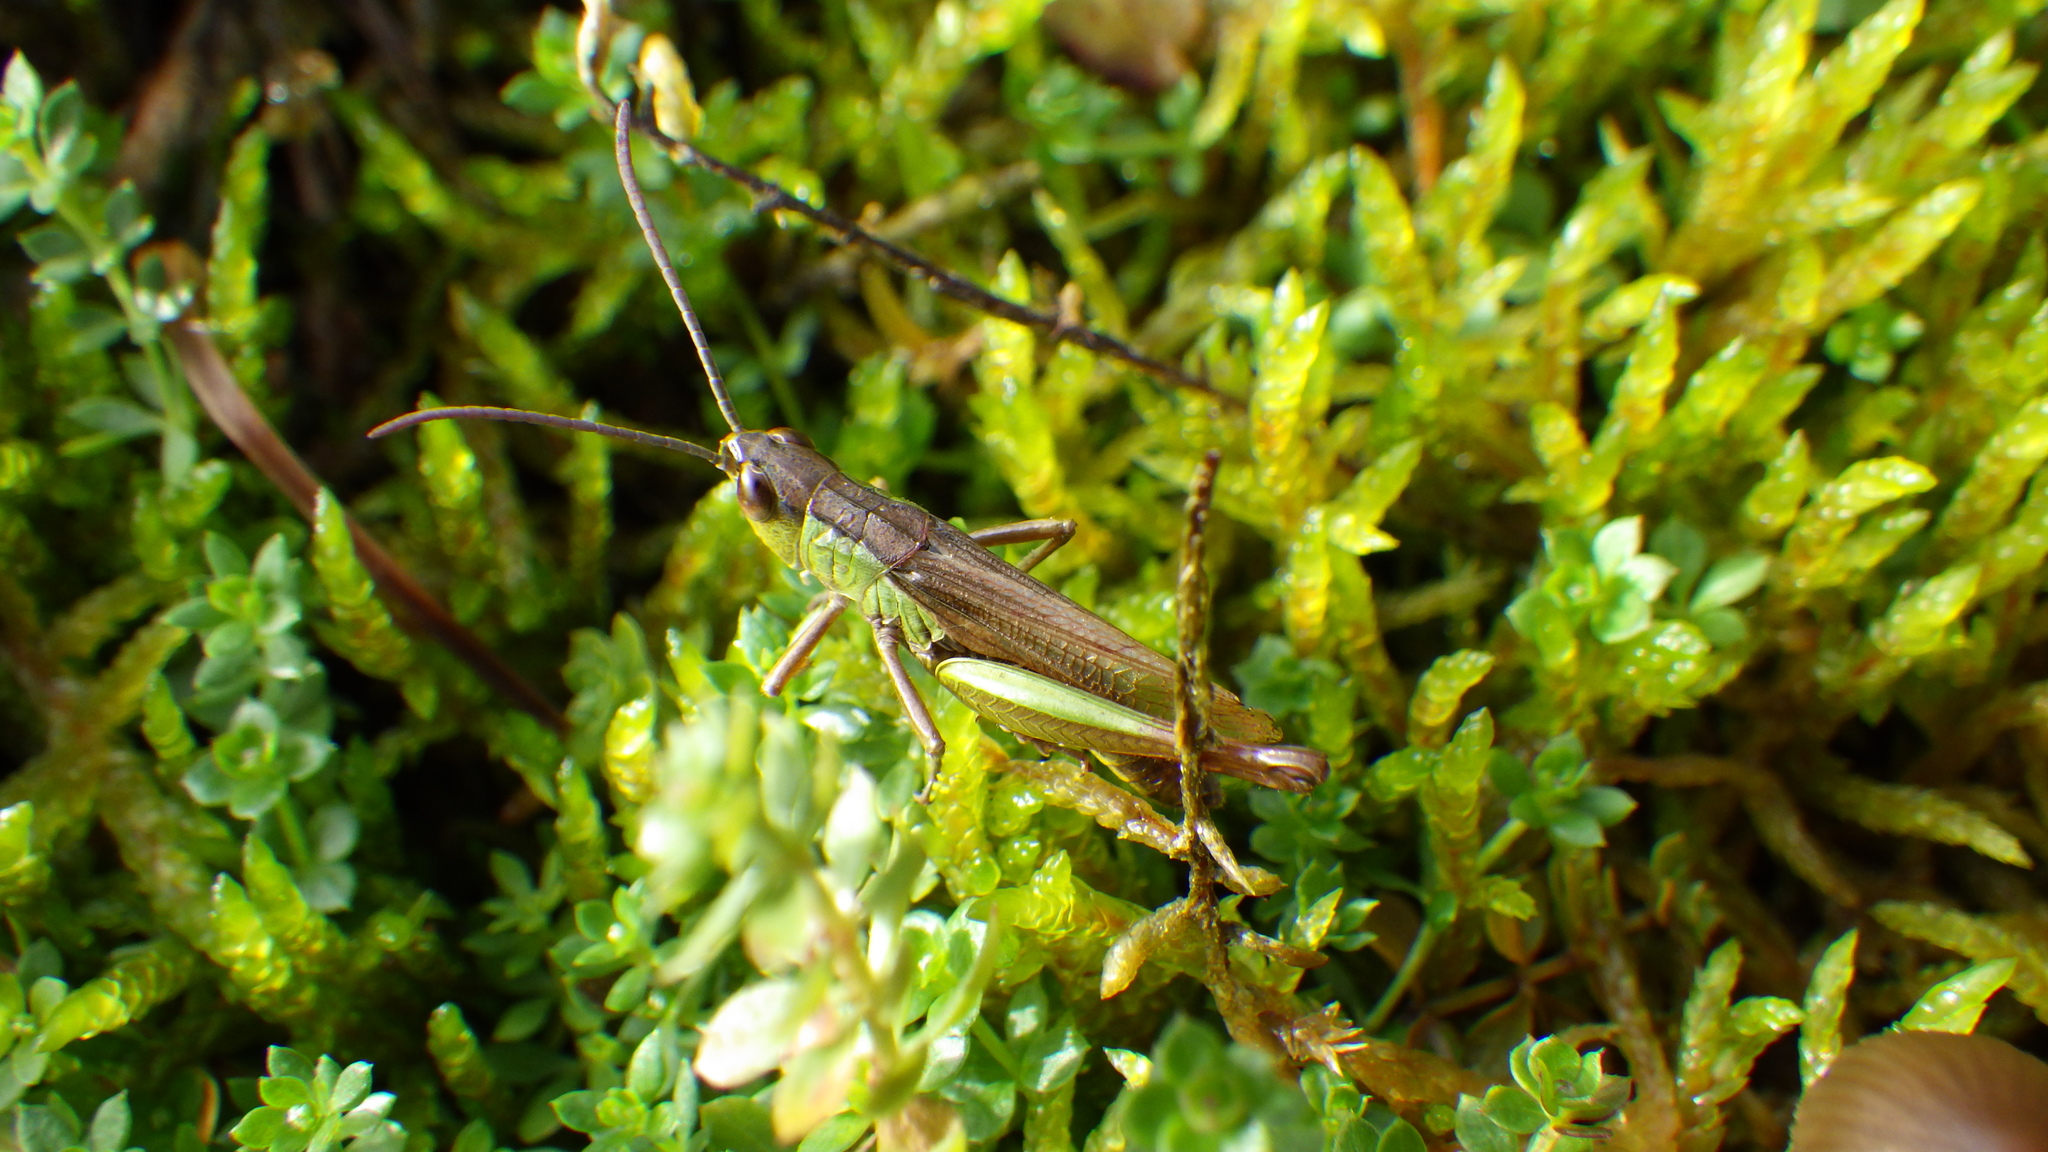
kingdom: Animalia
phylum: Arthropoda
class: Insecta
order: Orthoptera
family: Acrididae
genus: Pseudochorthippus
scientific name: Pseudochorthippus parallelus
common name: Meadow grasshopper
